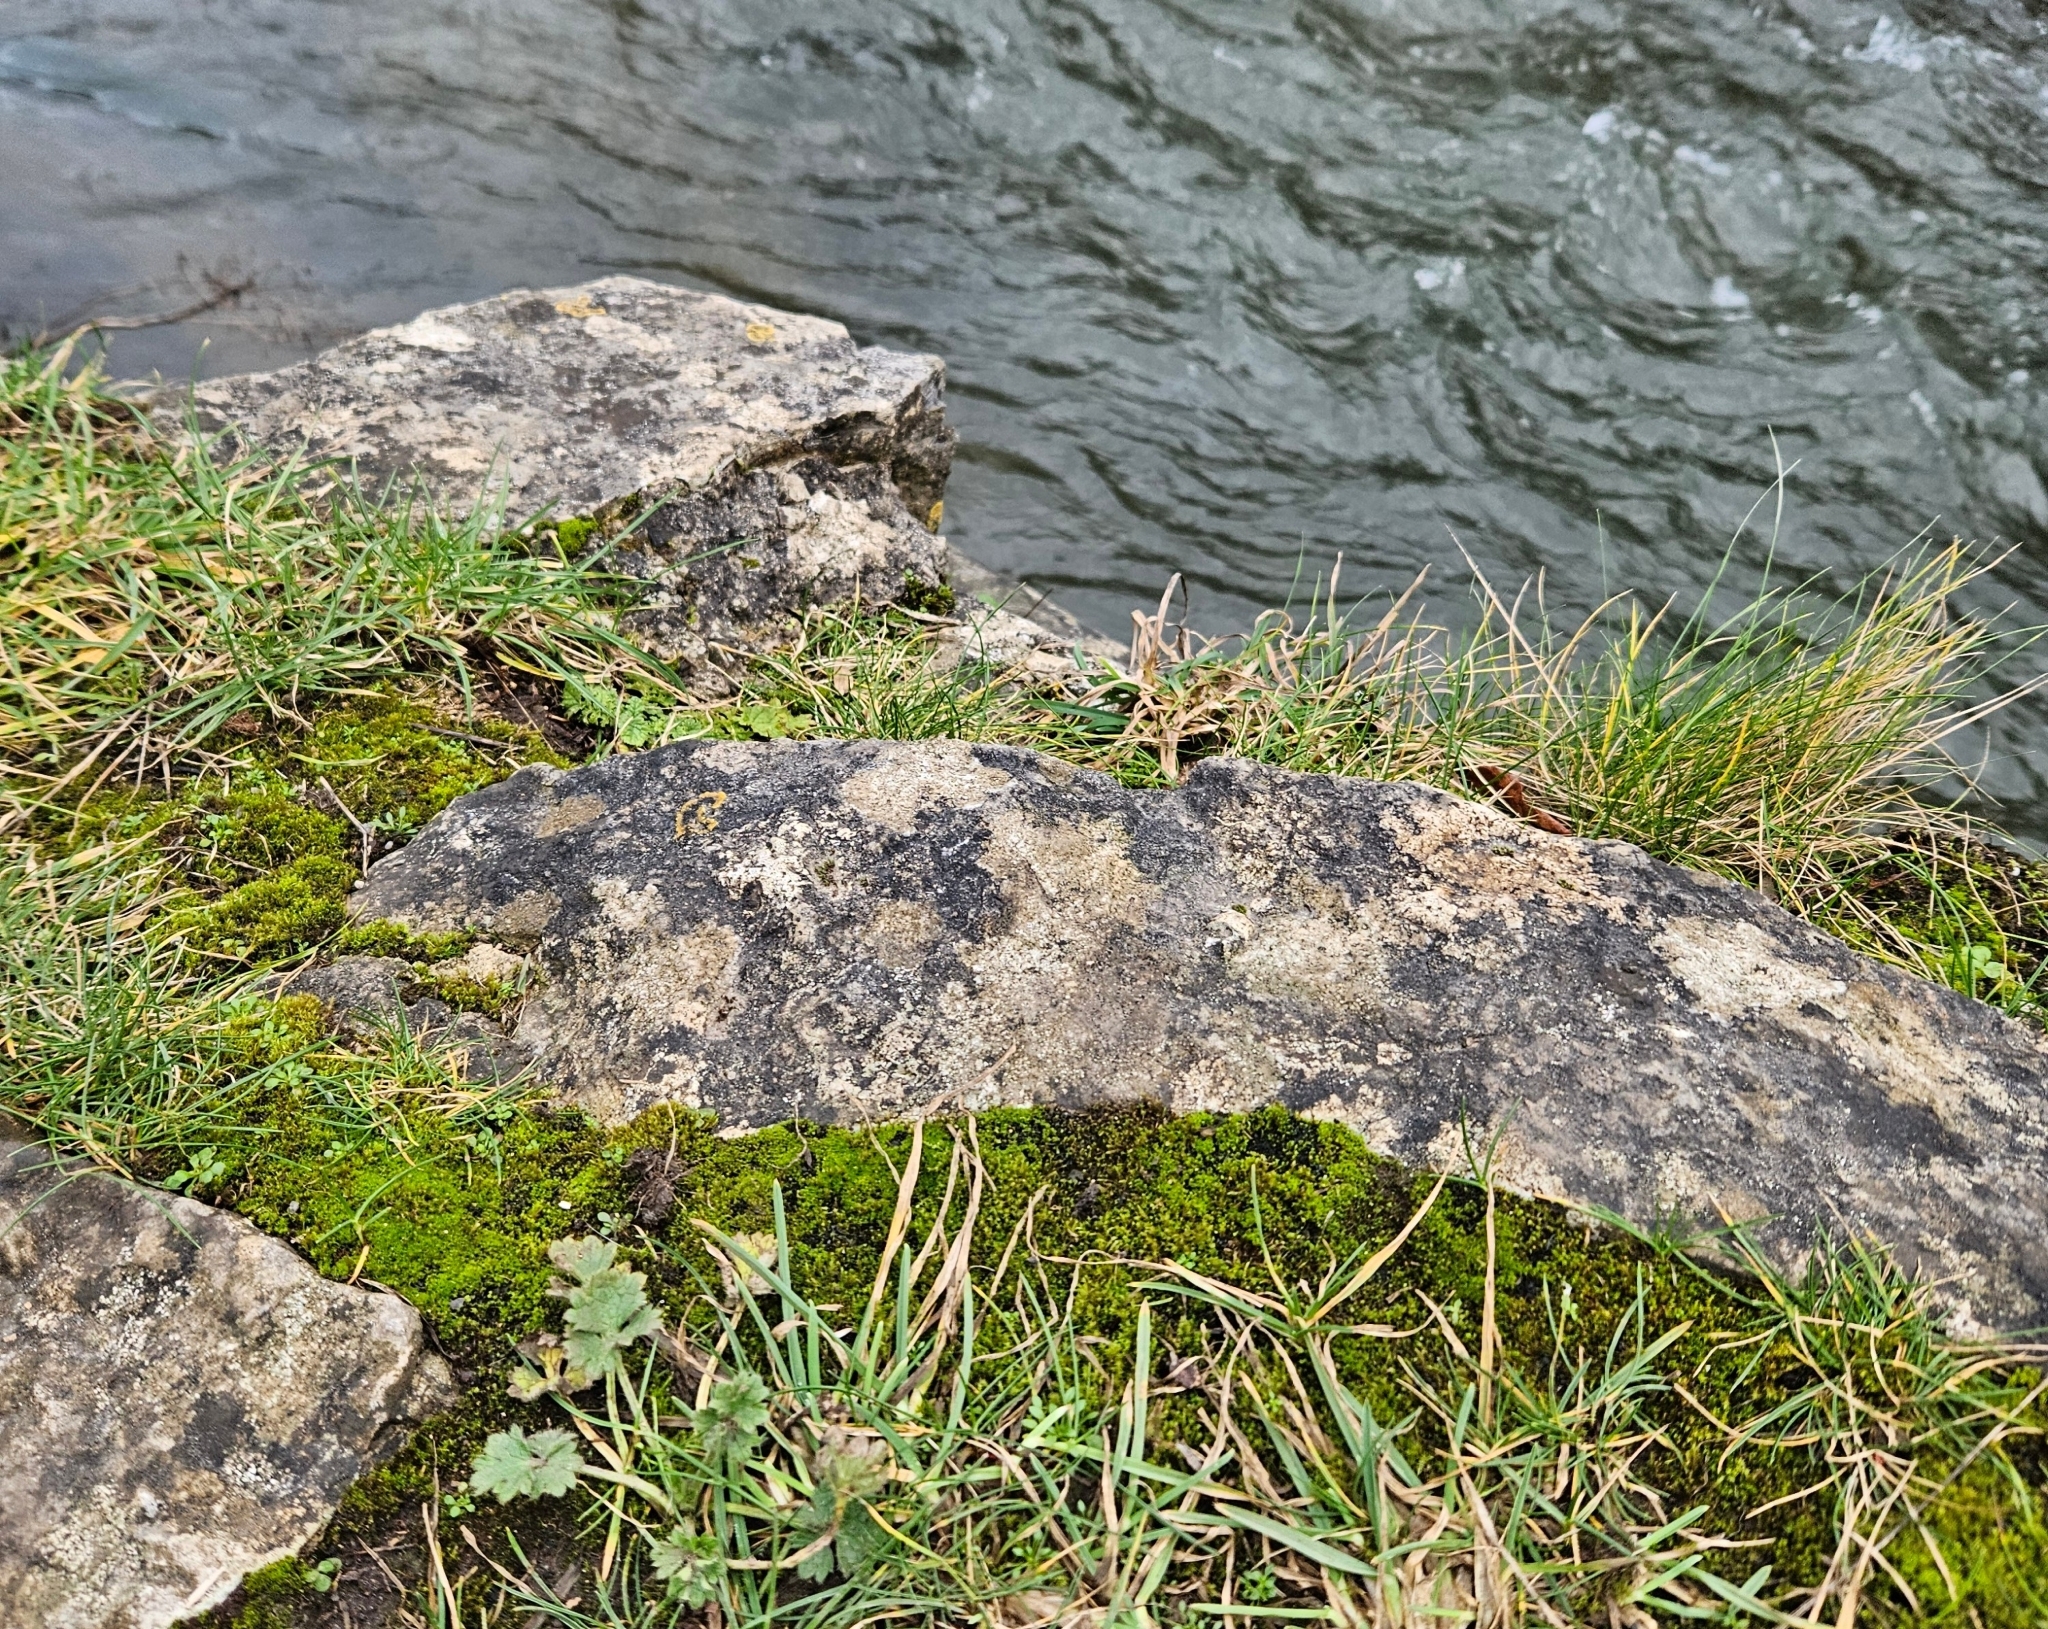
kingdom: Plantae
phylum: Bryophyta
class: Bryopsida
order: Pottiales
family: Pottiaceae
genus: Streblotrichum
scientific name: Streblotrichum convolutum
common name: Lesser bird's-claw beard-moss
